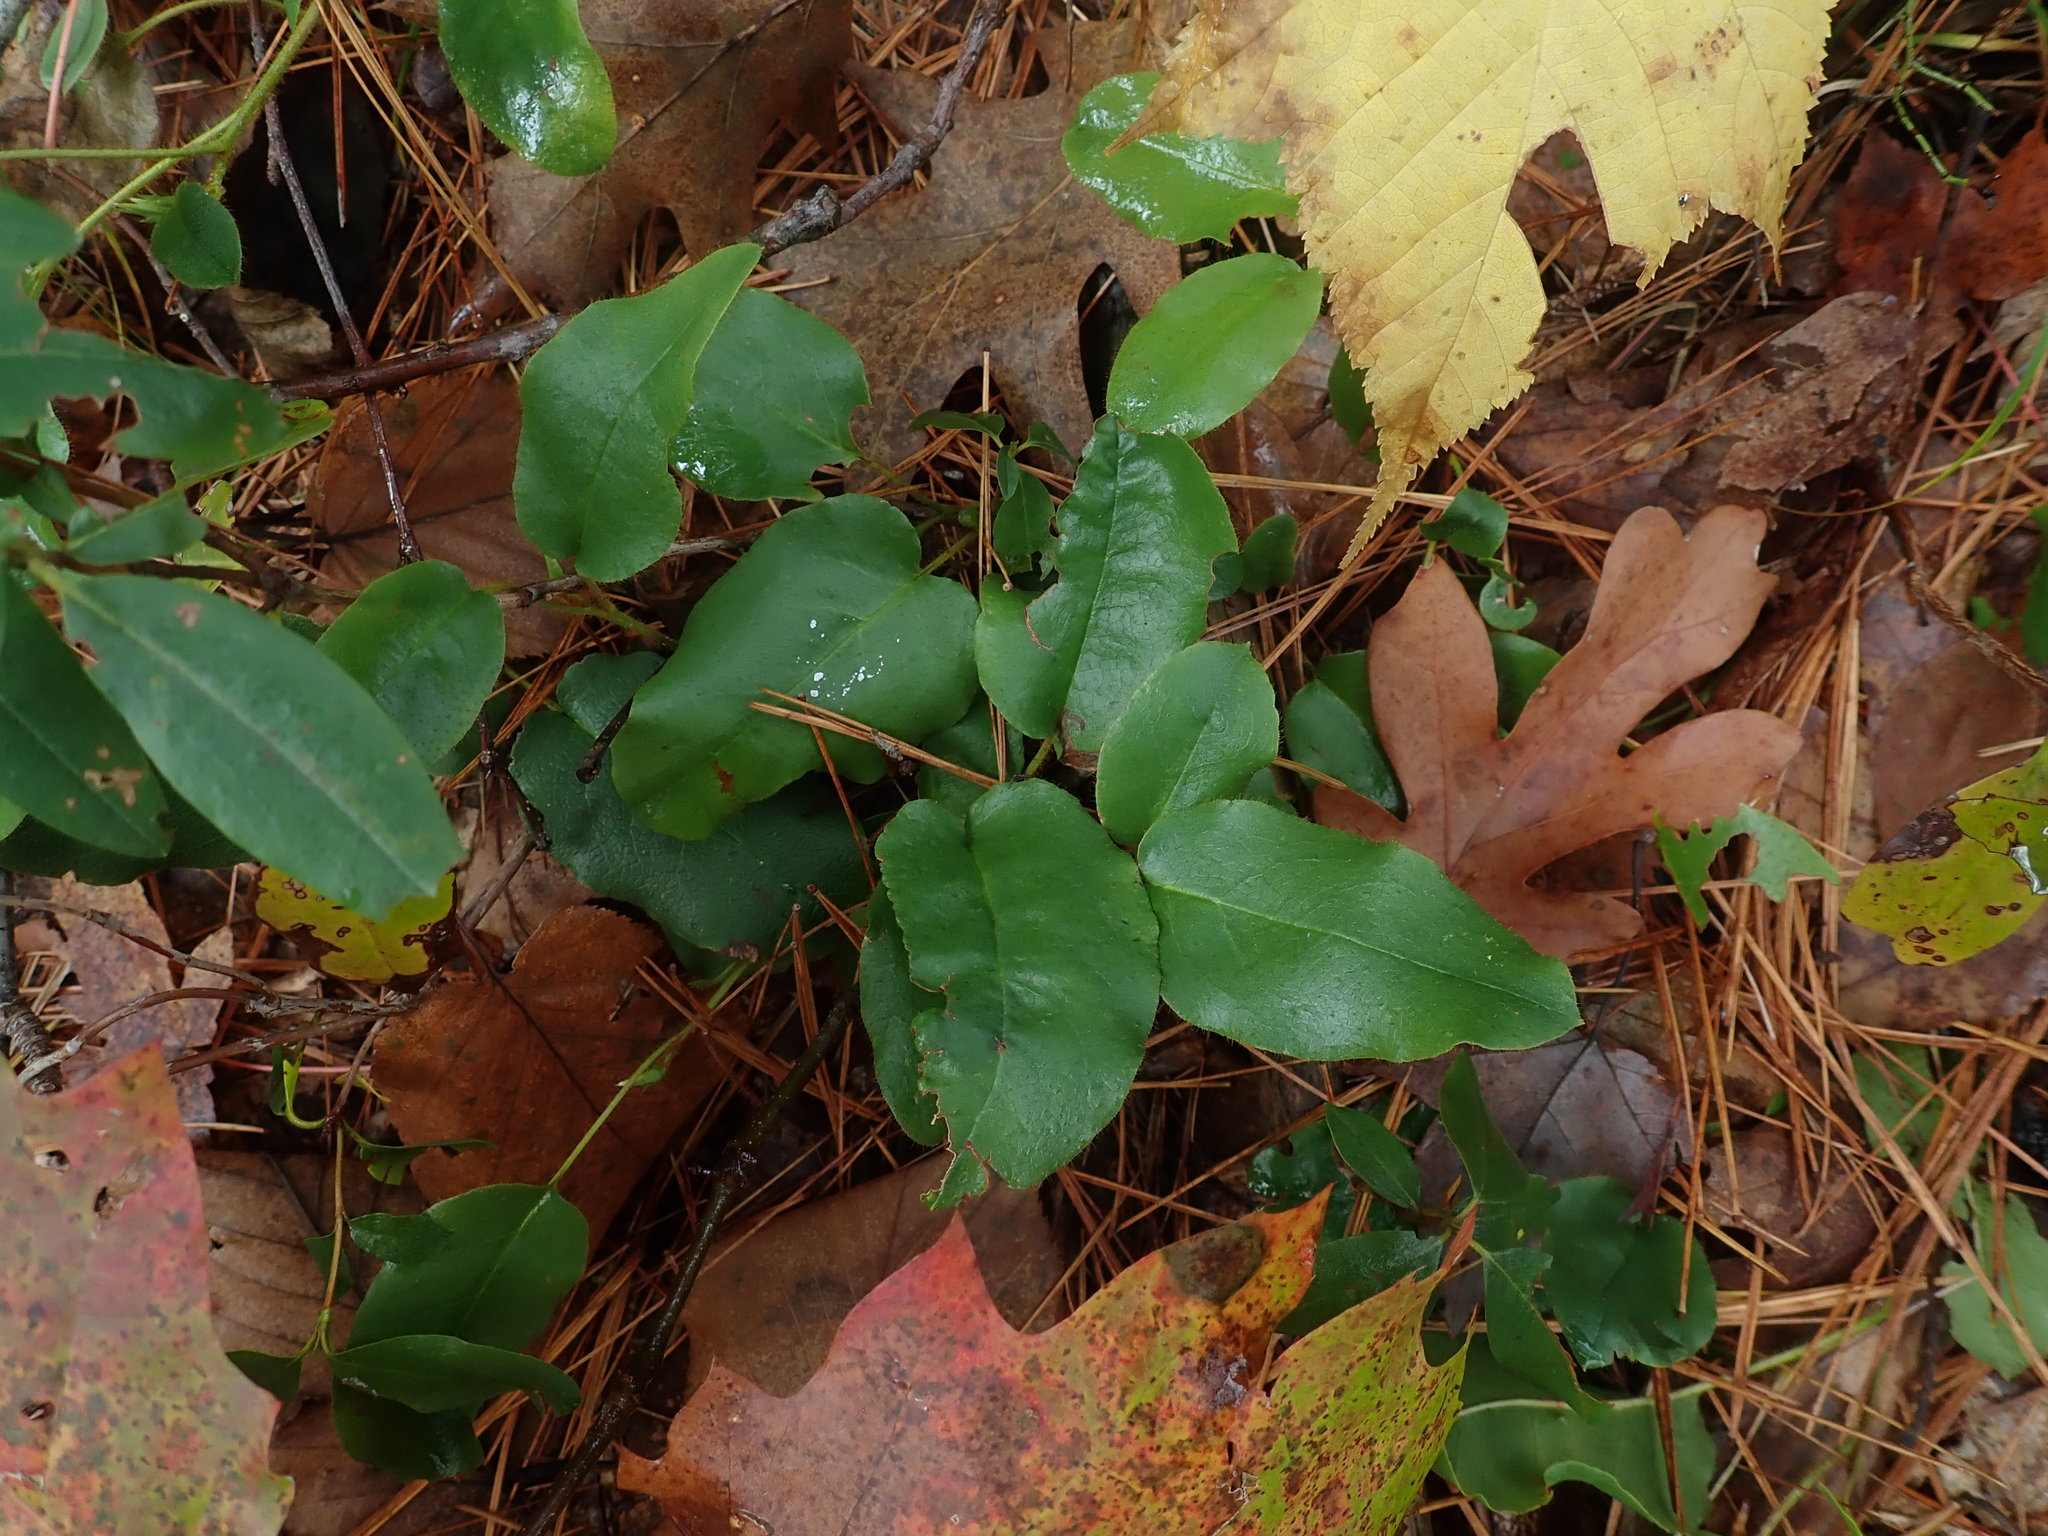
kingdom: Plantae
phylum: Tracheophyta
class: Magnoliopsida
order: Ericales
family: Ericaceae
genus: Epigaea
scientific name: Epigaea repens
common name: Gravelroot
